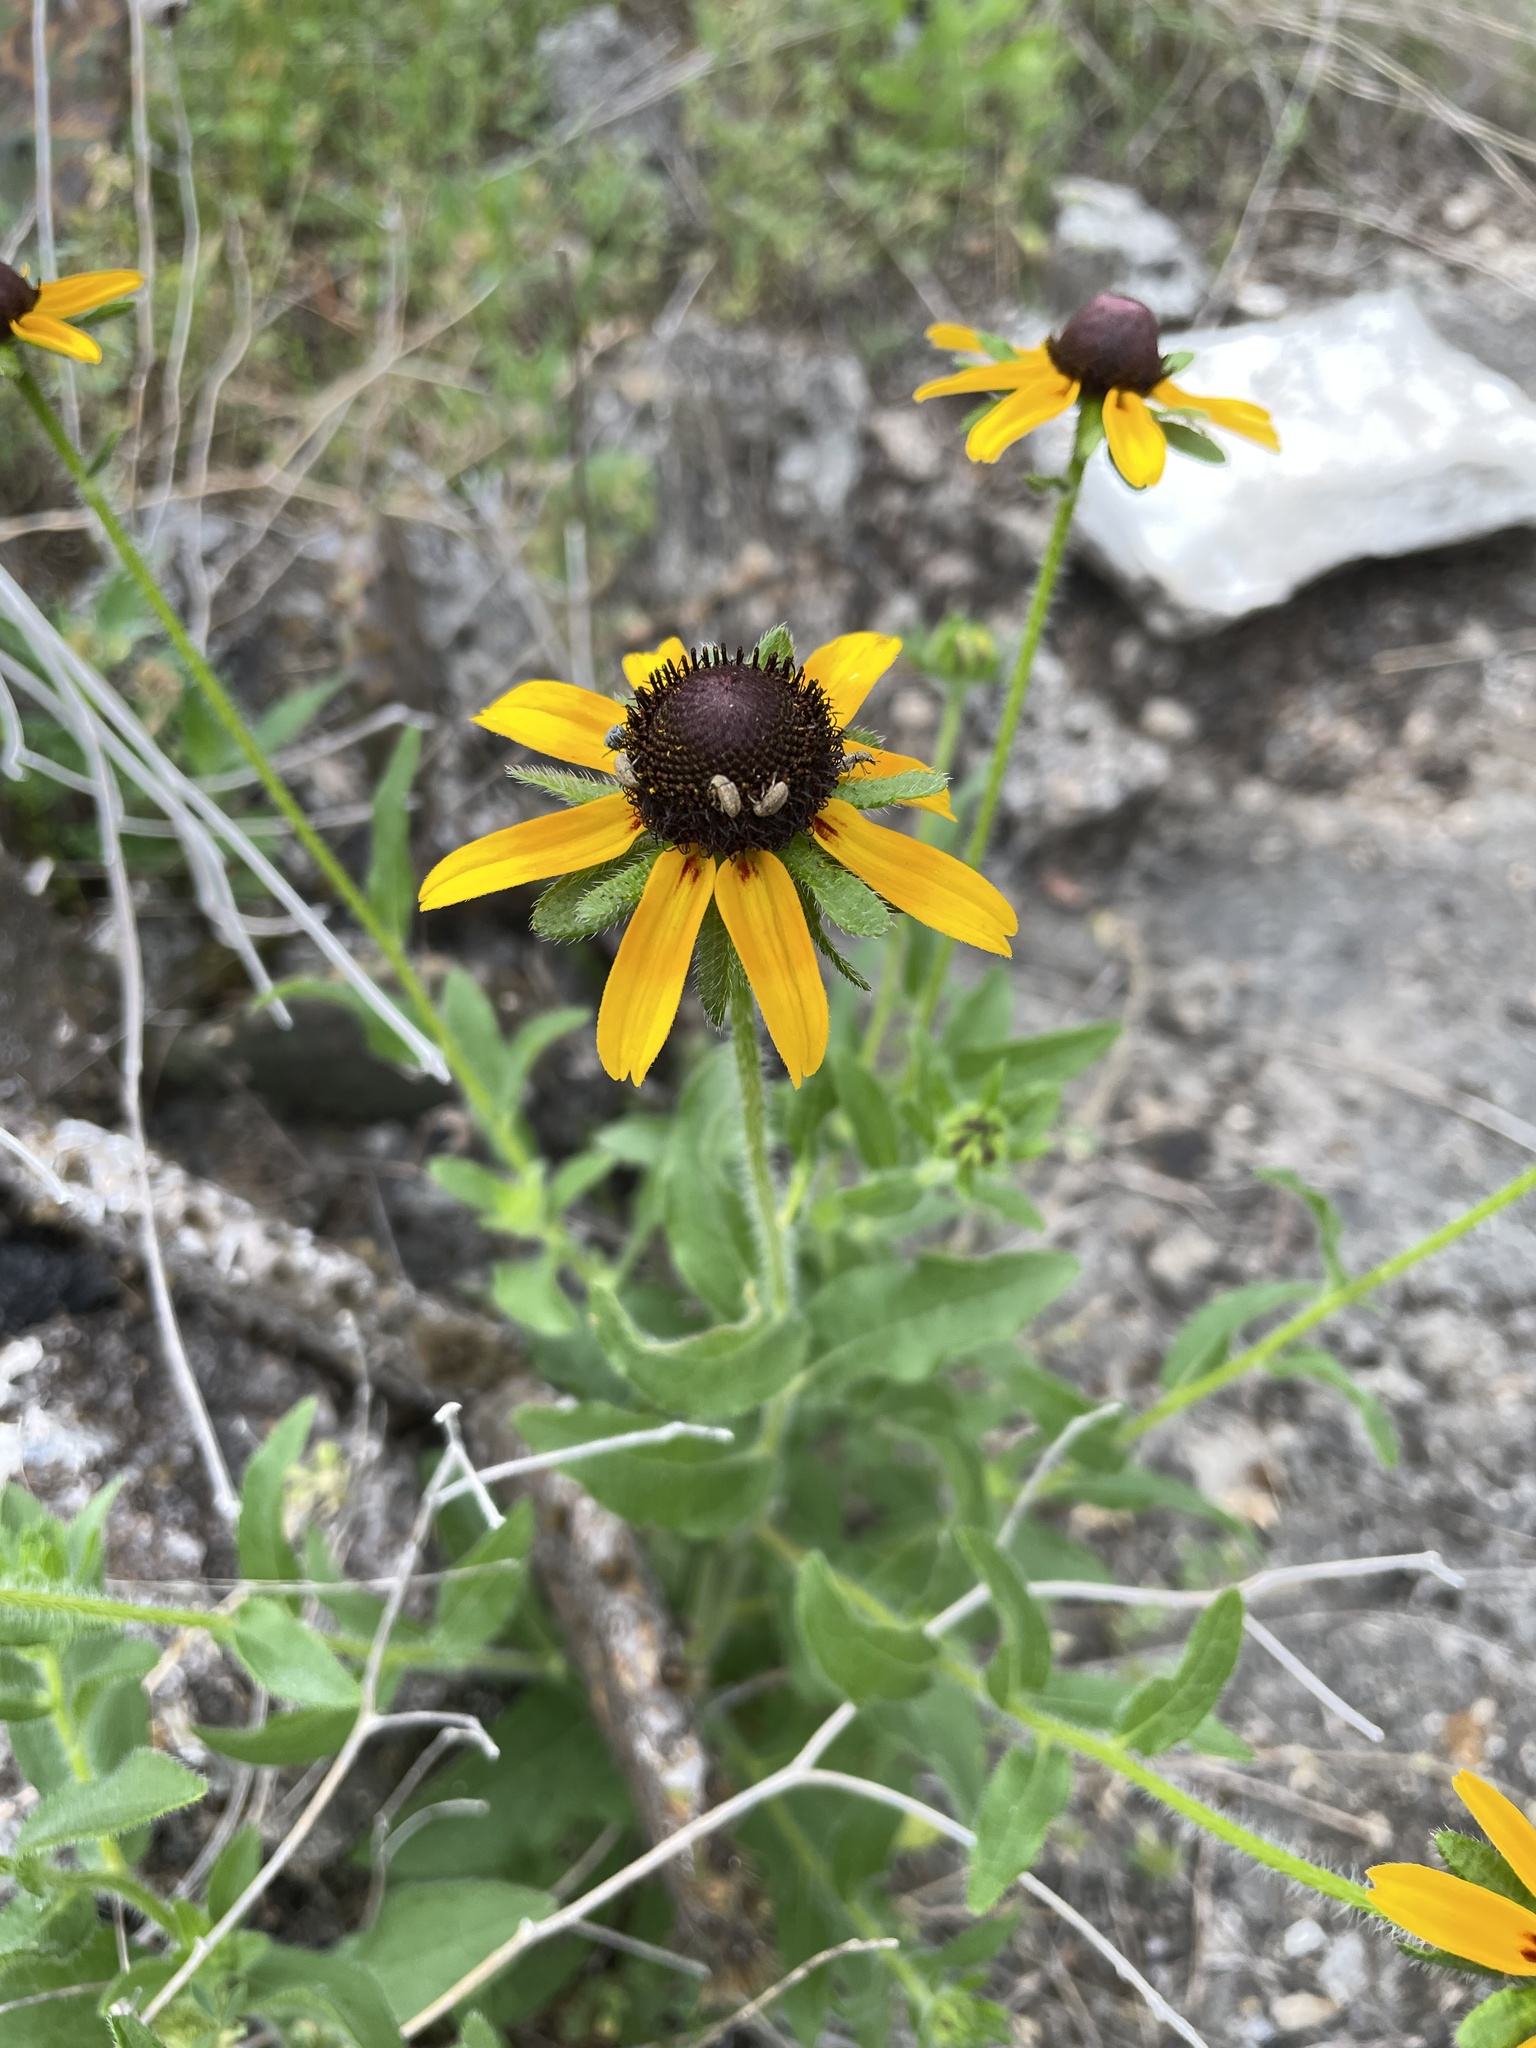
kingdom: Plantae
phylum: Tracheophyta
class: Magnoliopsida
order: Asterales
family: Asteraceae
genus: Rudbeckia
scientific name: Rudbeckia hirta
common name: Black-eyed-susan
